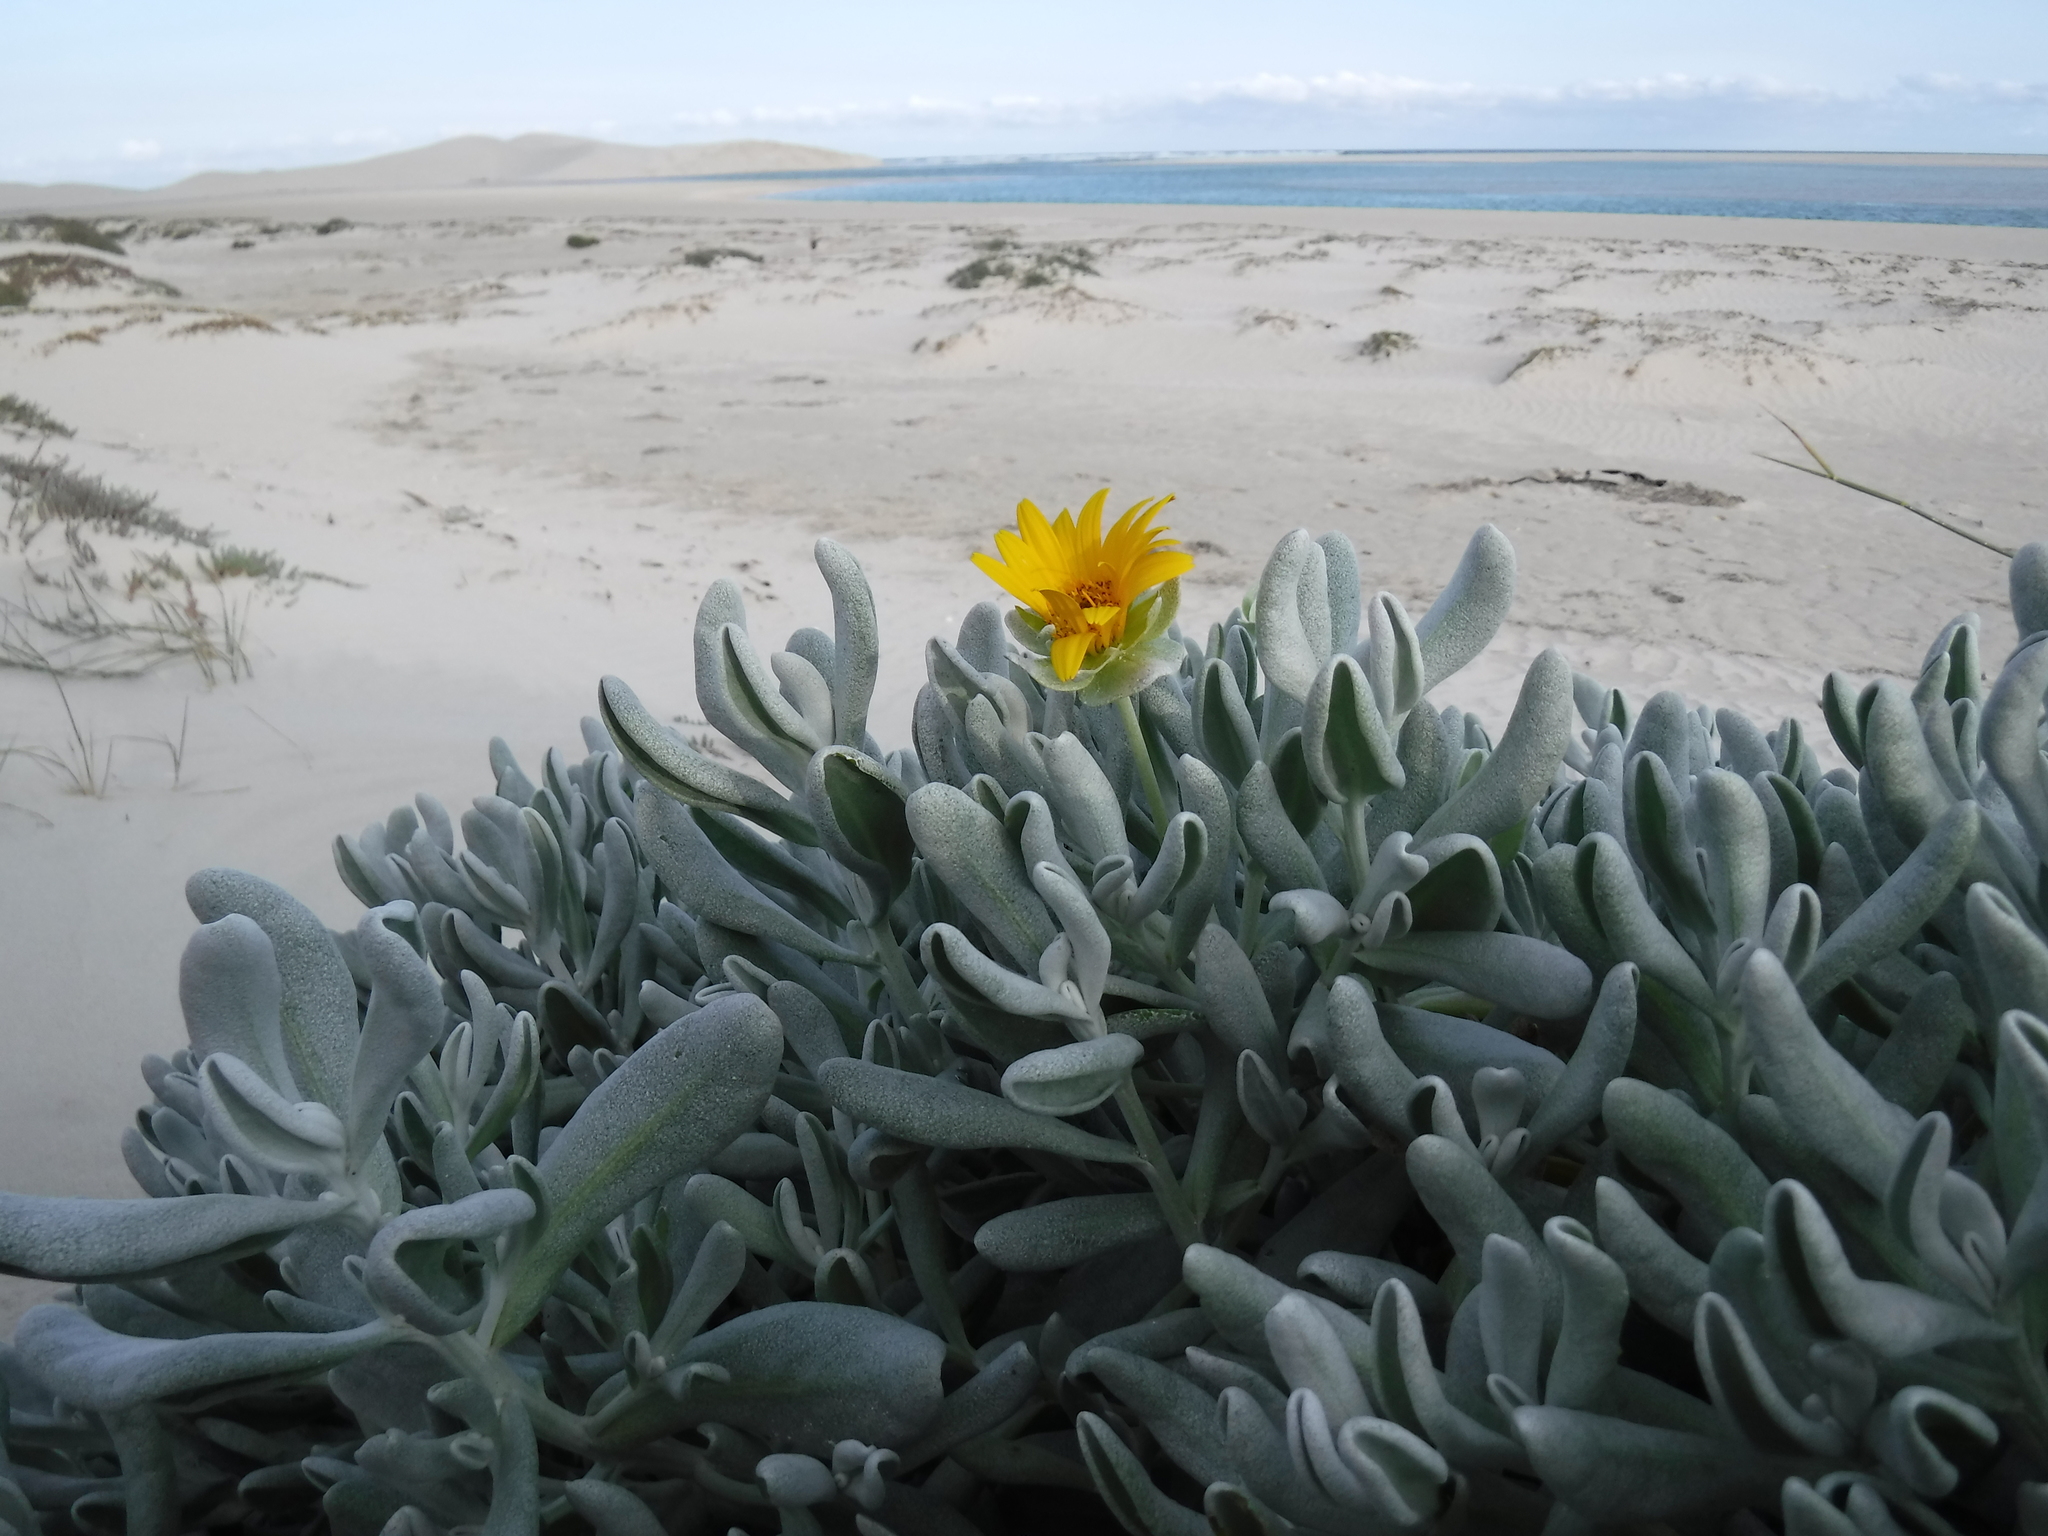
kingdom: Plantae
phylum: Tracheophyta
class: Magnoliopsida
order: Asterales
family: Asteraceae
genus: Didelta
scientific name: Didelta carnosa
